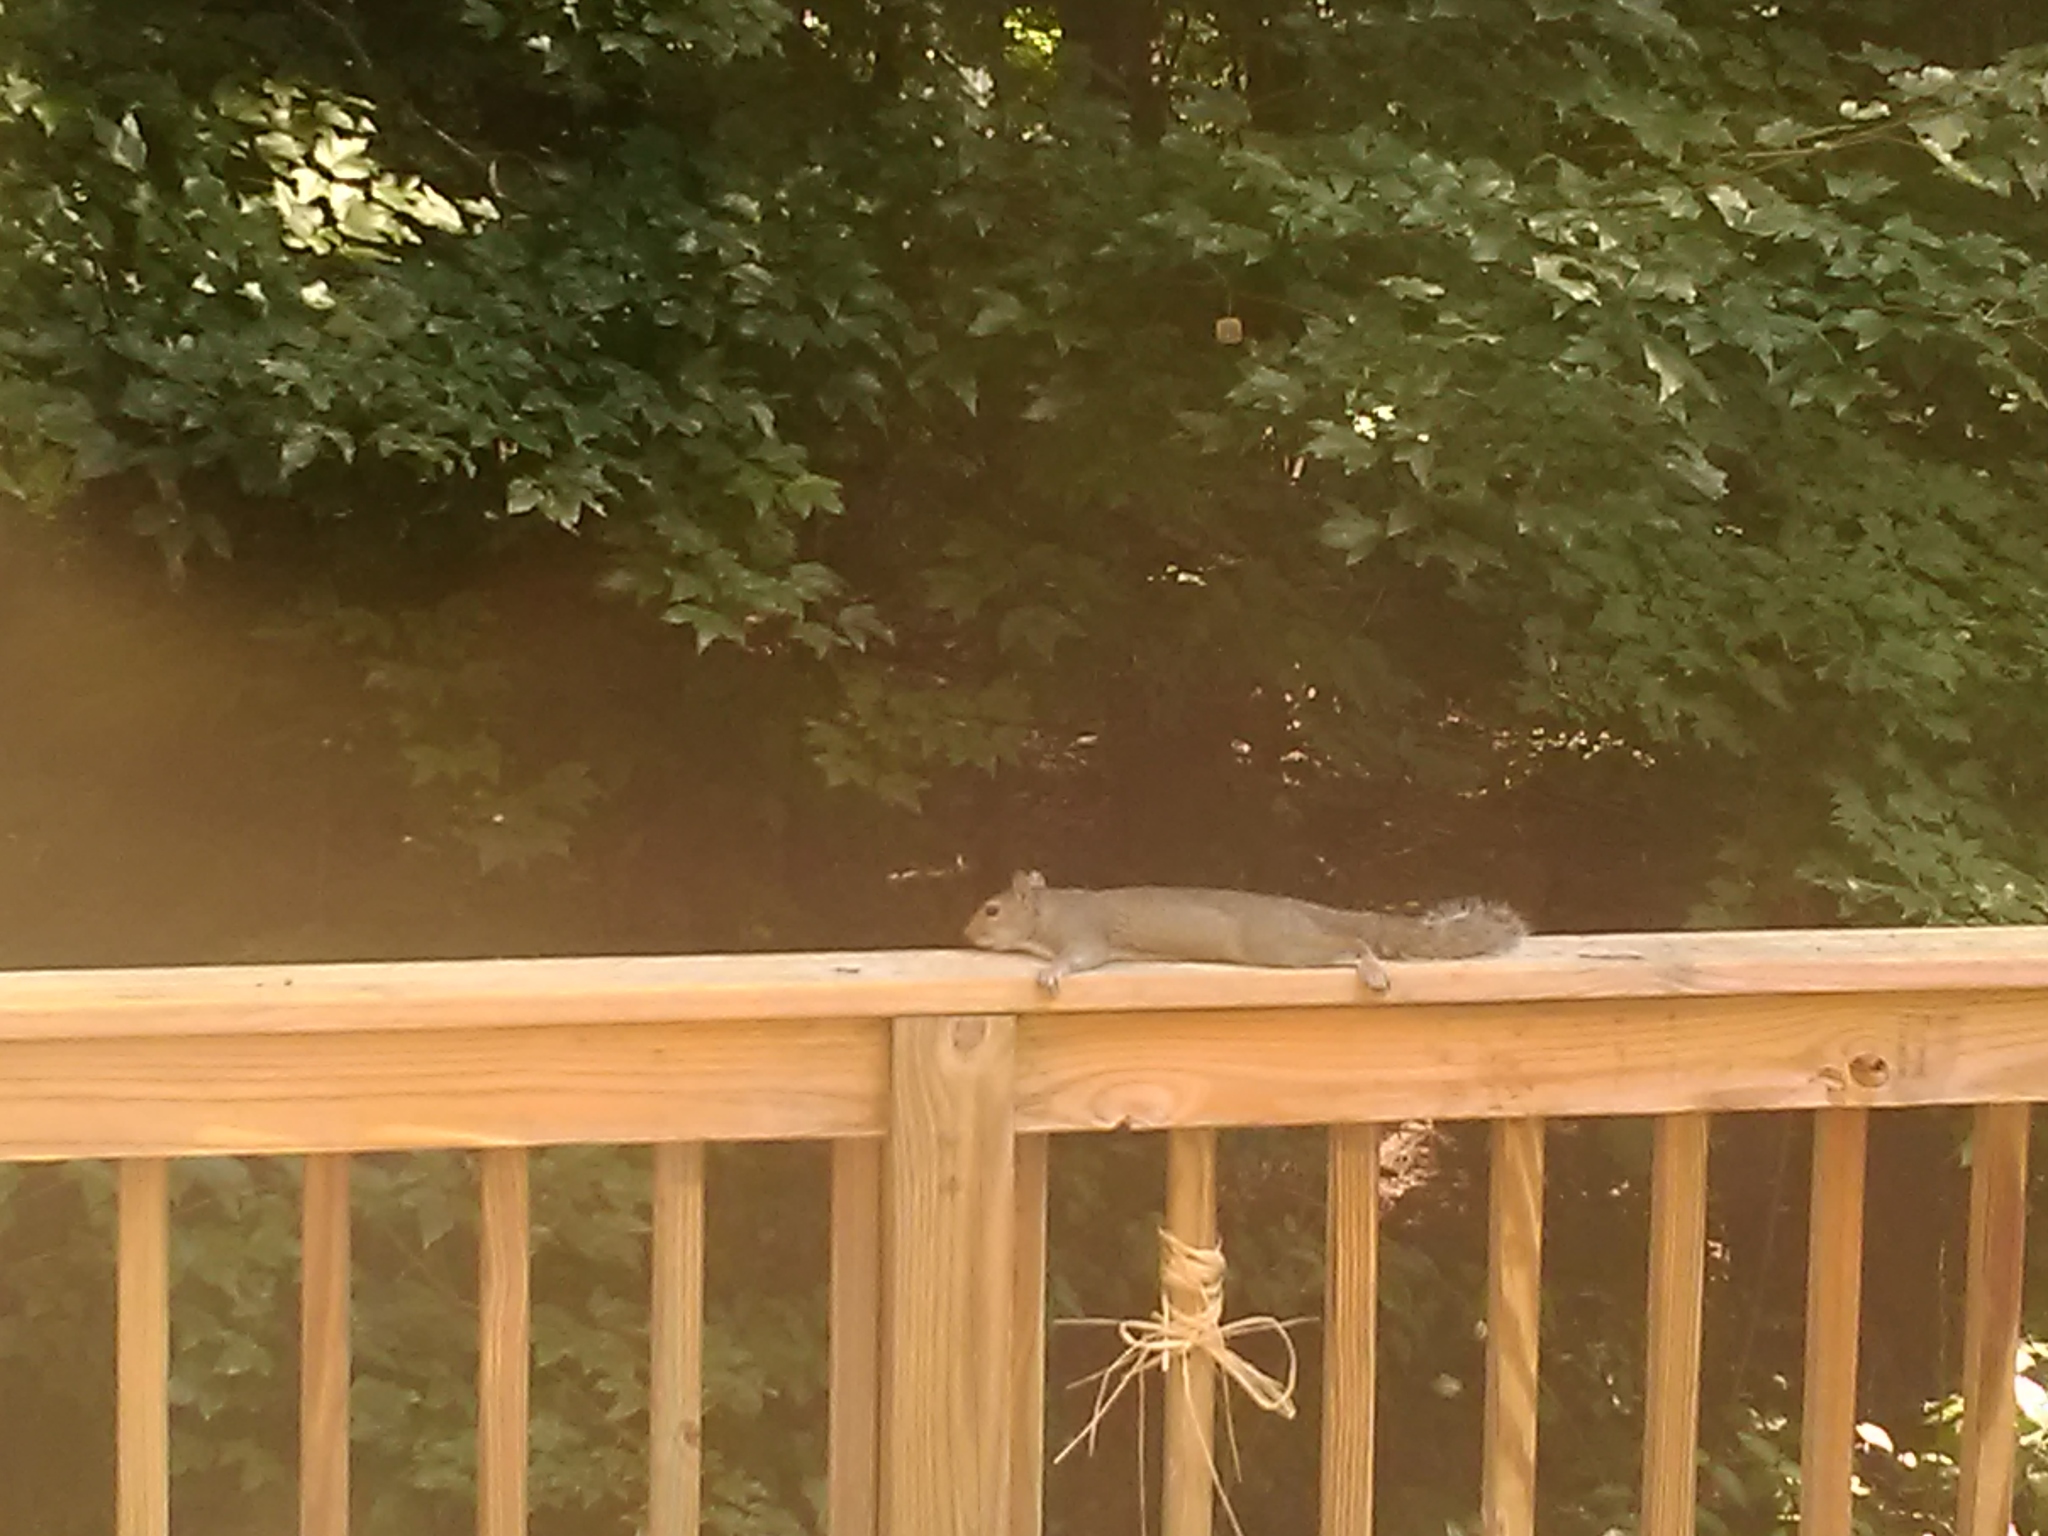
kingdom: Animalia
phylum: Chordata
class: Mammalia
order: Rodentia
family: Sciuridae
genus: Sciurus
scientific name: Sciurus carolinensis
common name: Eastern gray squirrel
